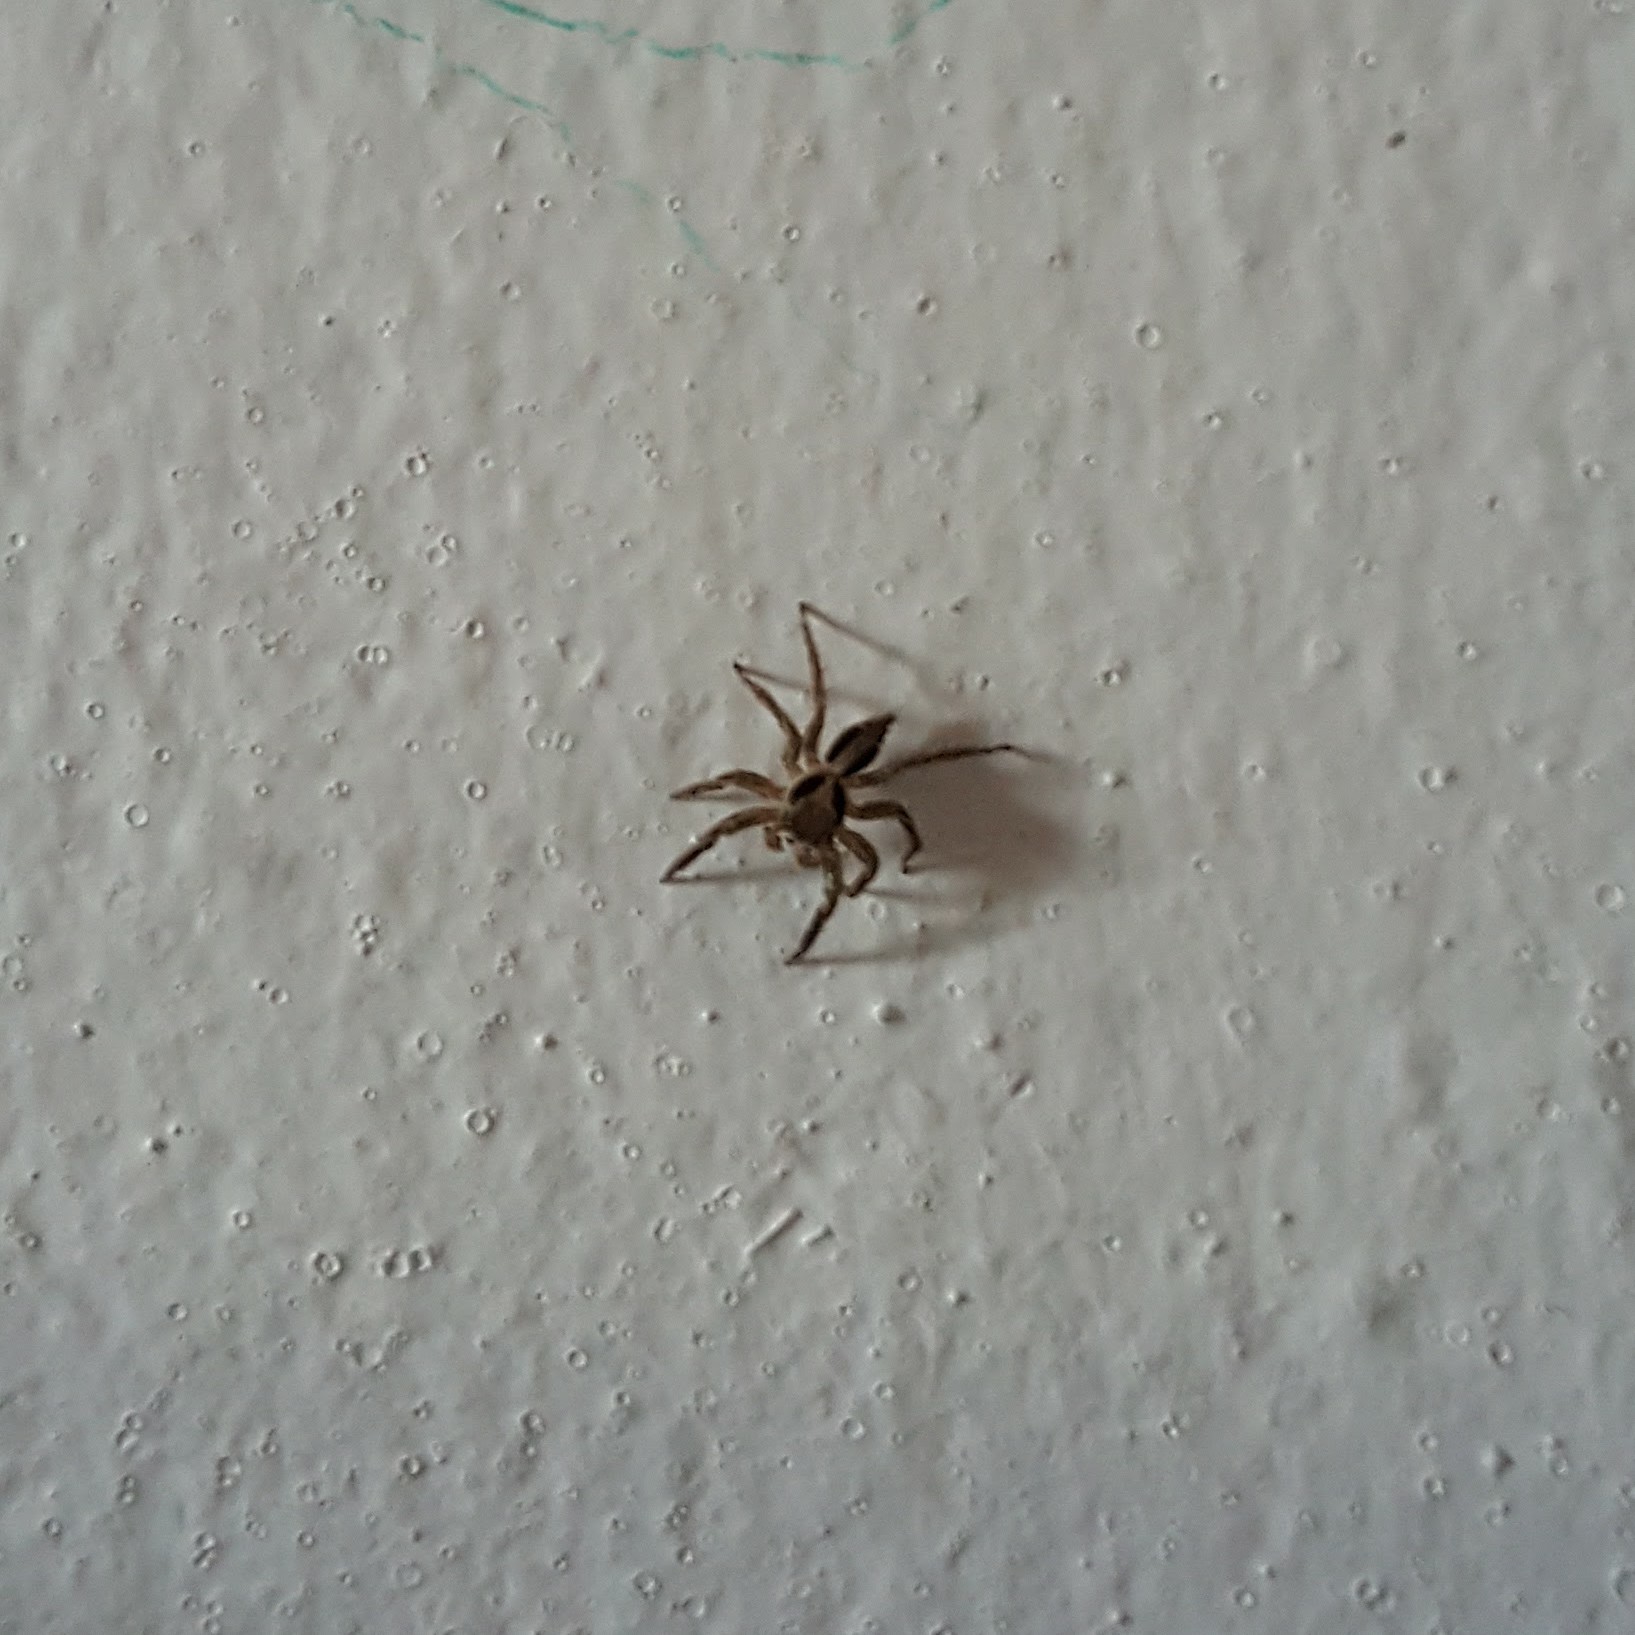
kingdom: Animalia
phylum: Arthropoda
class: Arachnida
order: Araneae
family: Salticidae
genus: Plexippus
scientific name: Plexippus petersi
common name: Jumping spider
